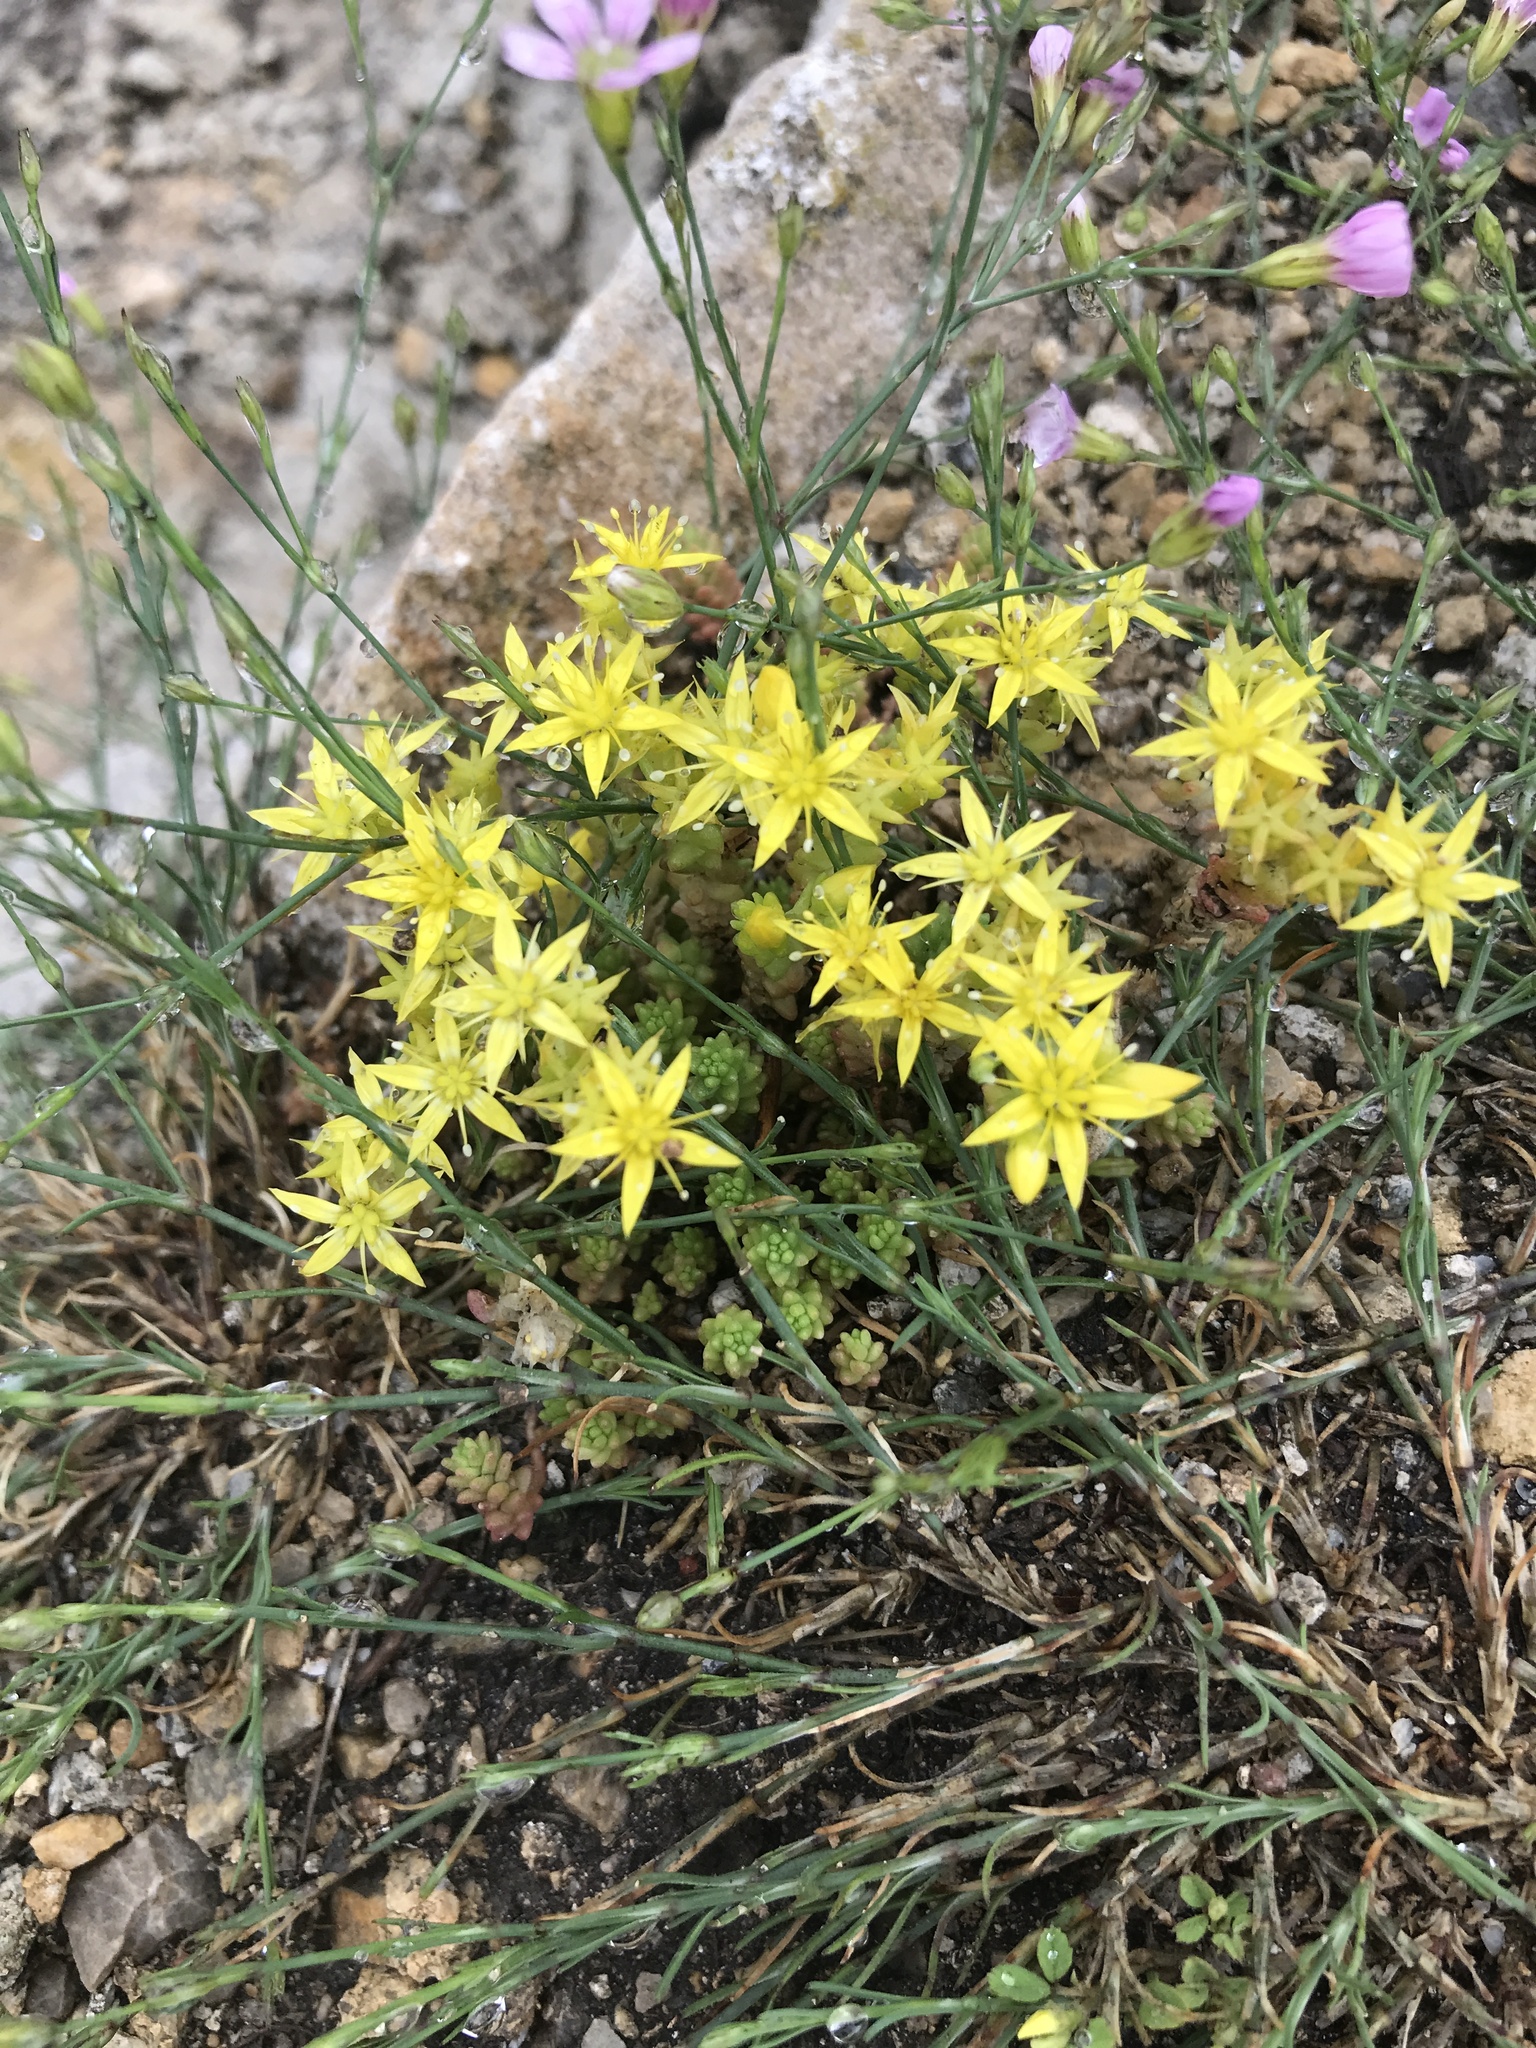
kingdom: Plantae
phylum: Tracheophyta
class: Magnoliopsida
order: Saxifragales
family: Crassulaceae
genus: Sedum
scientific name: Sedum acre
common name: Biting stonecrop
